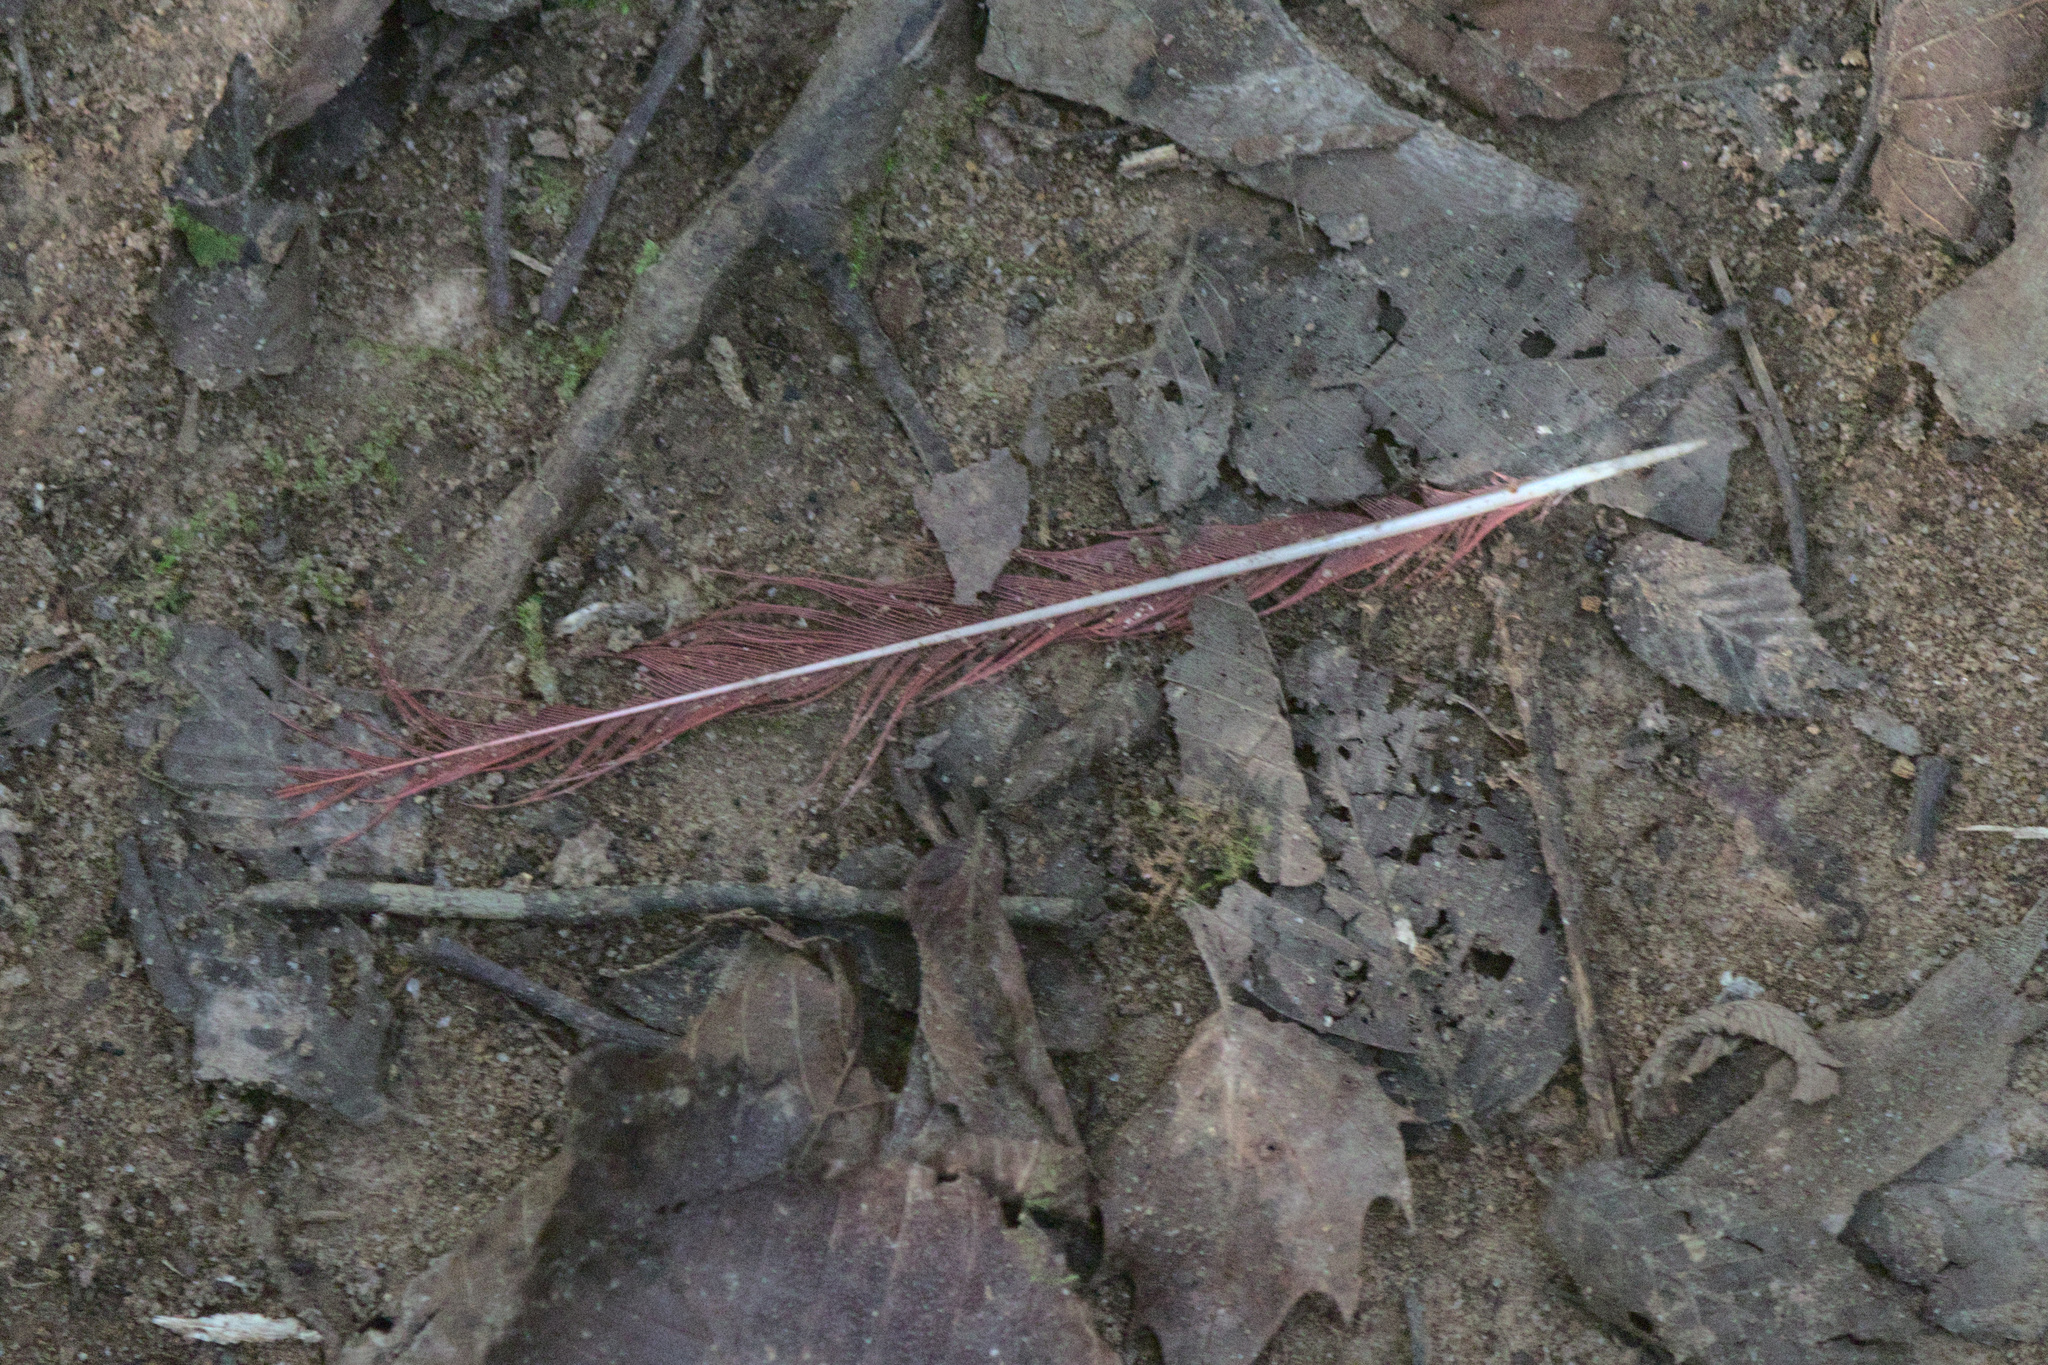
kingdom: Animalia
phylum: Chordata
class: Aves
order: Passeriformes
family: Cardinalidae
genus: Cardinalis
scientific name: Cardinalis cardinalis
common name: Northern cardinal
